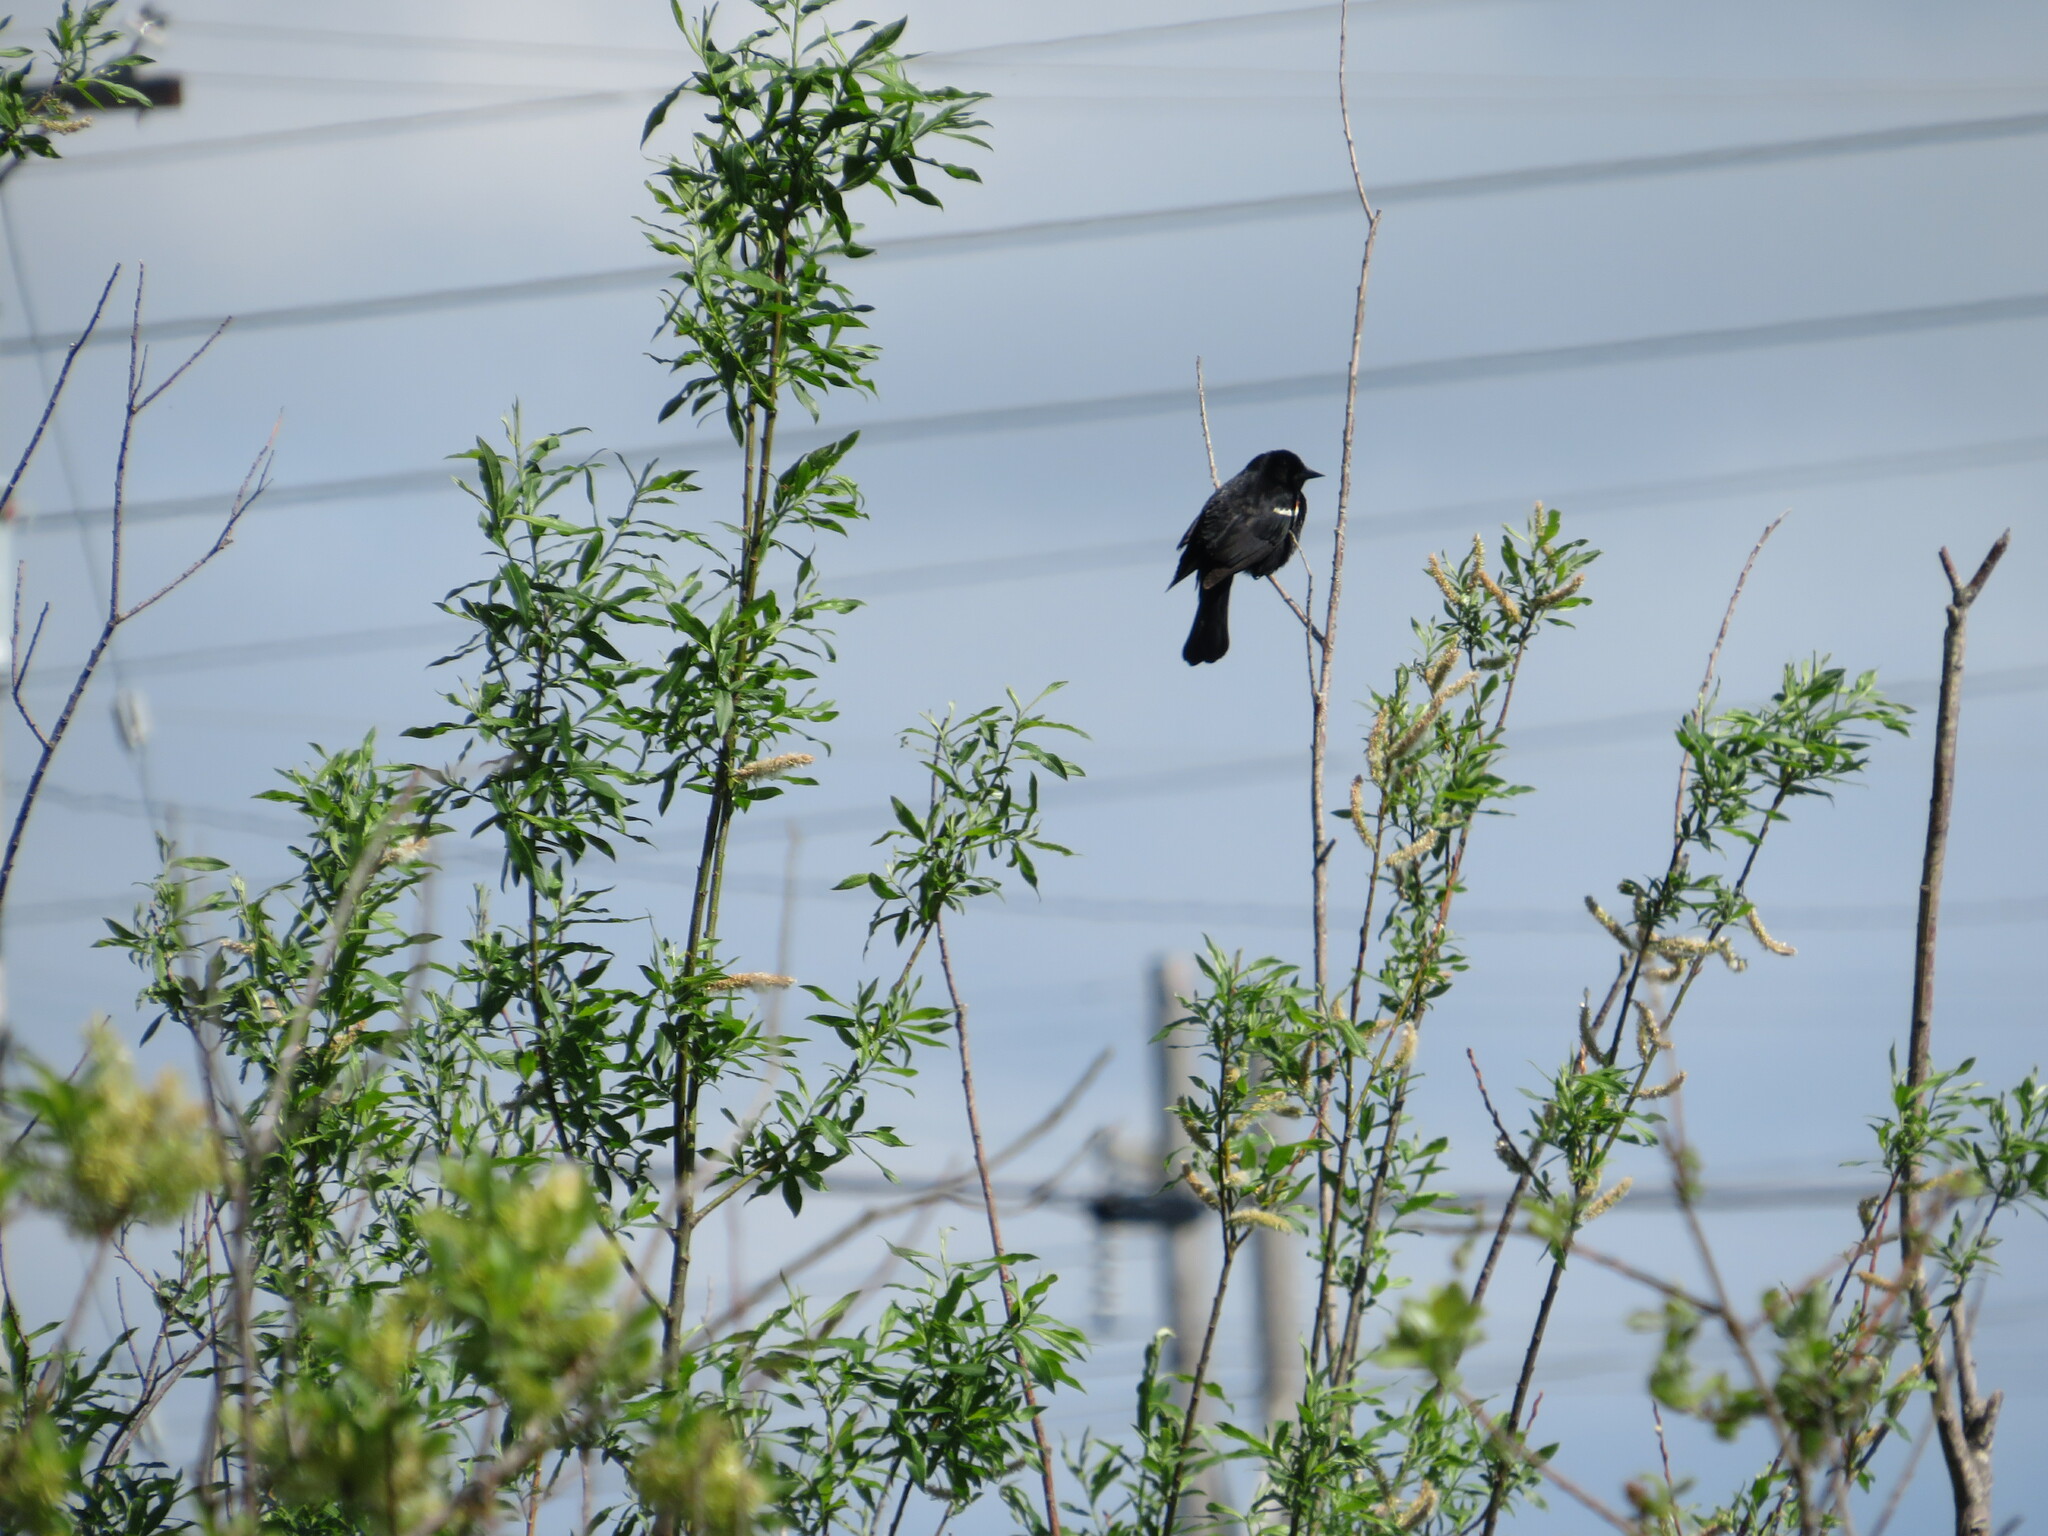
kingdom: Animalia
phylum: Chordata
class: Aves
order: Passeriformes
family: Icteridae
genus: Agelaius
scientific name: Agelaius phoeniceus
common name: Red-winged blackbird
